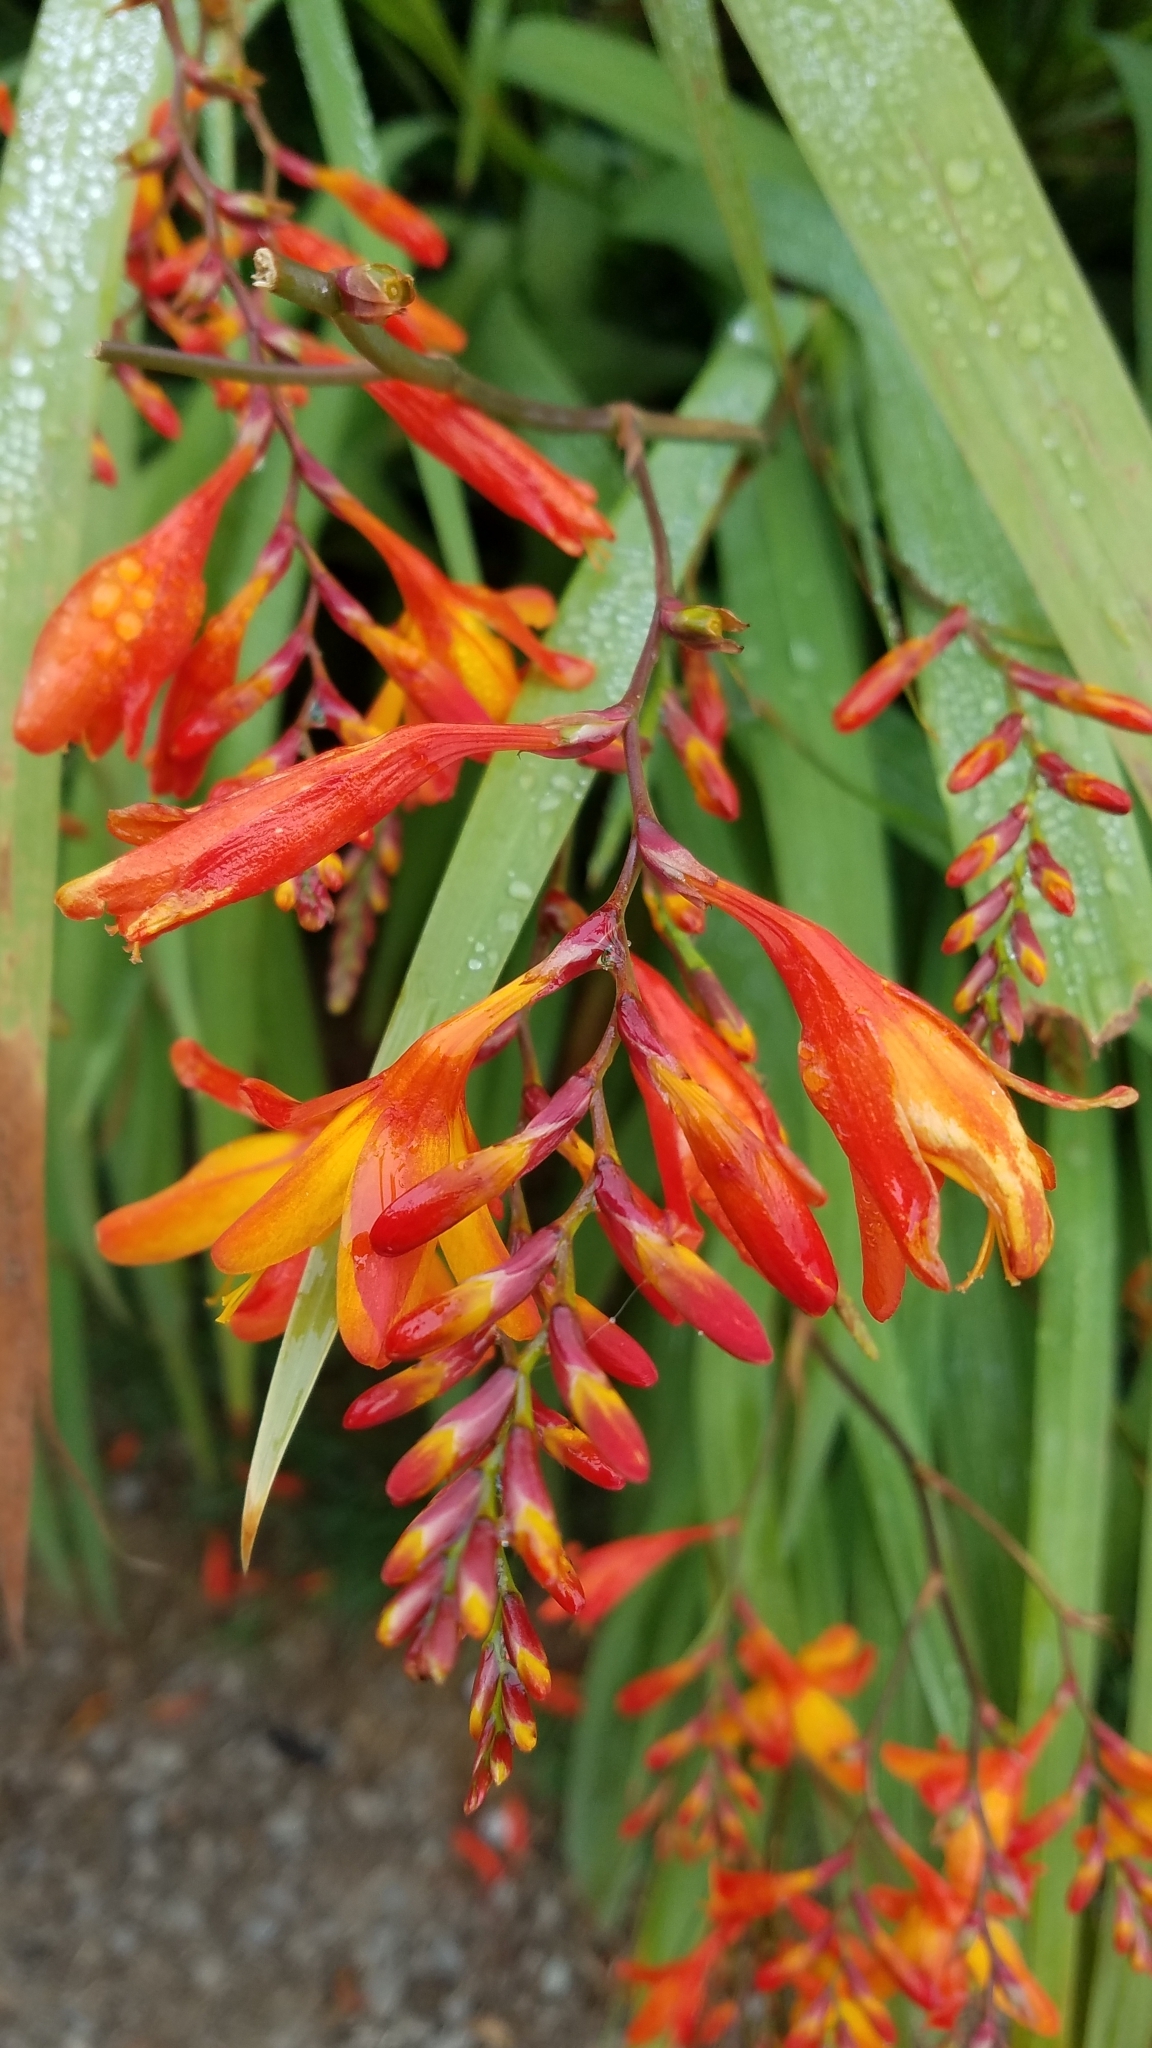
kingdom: Plantae
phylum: Tracheophyta
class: Liliopsida
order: Asparagales
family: Iridaceae
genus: Crocosmia
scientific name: Crocosmia crocosmiiflora
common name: Montbretia
